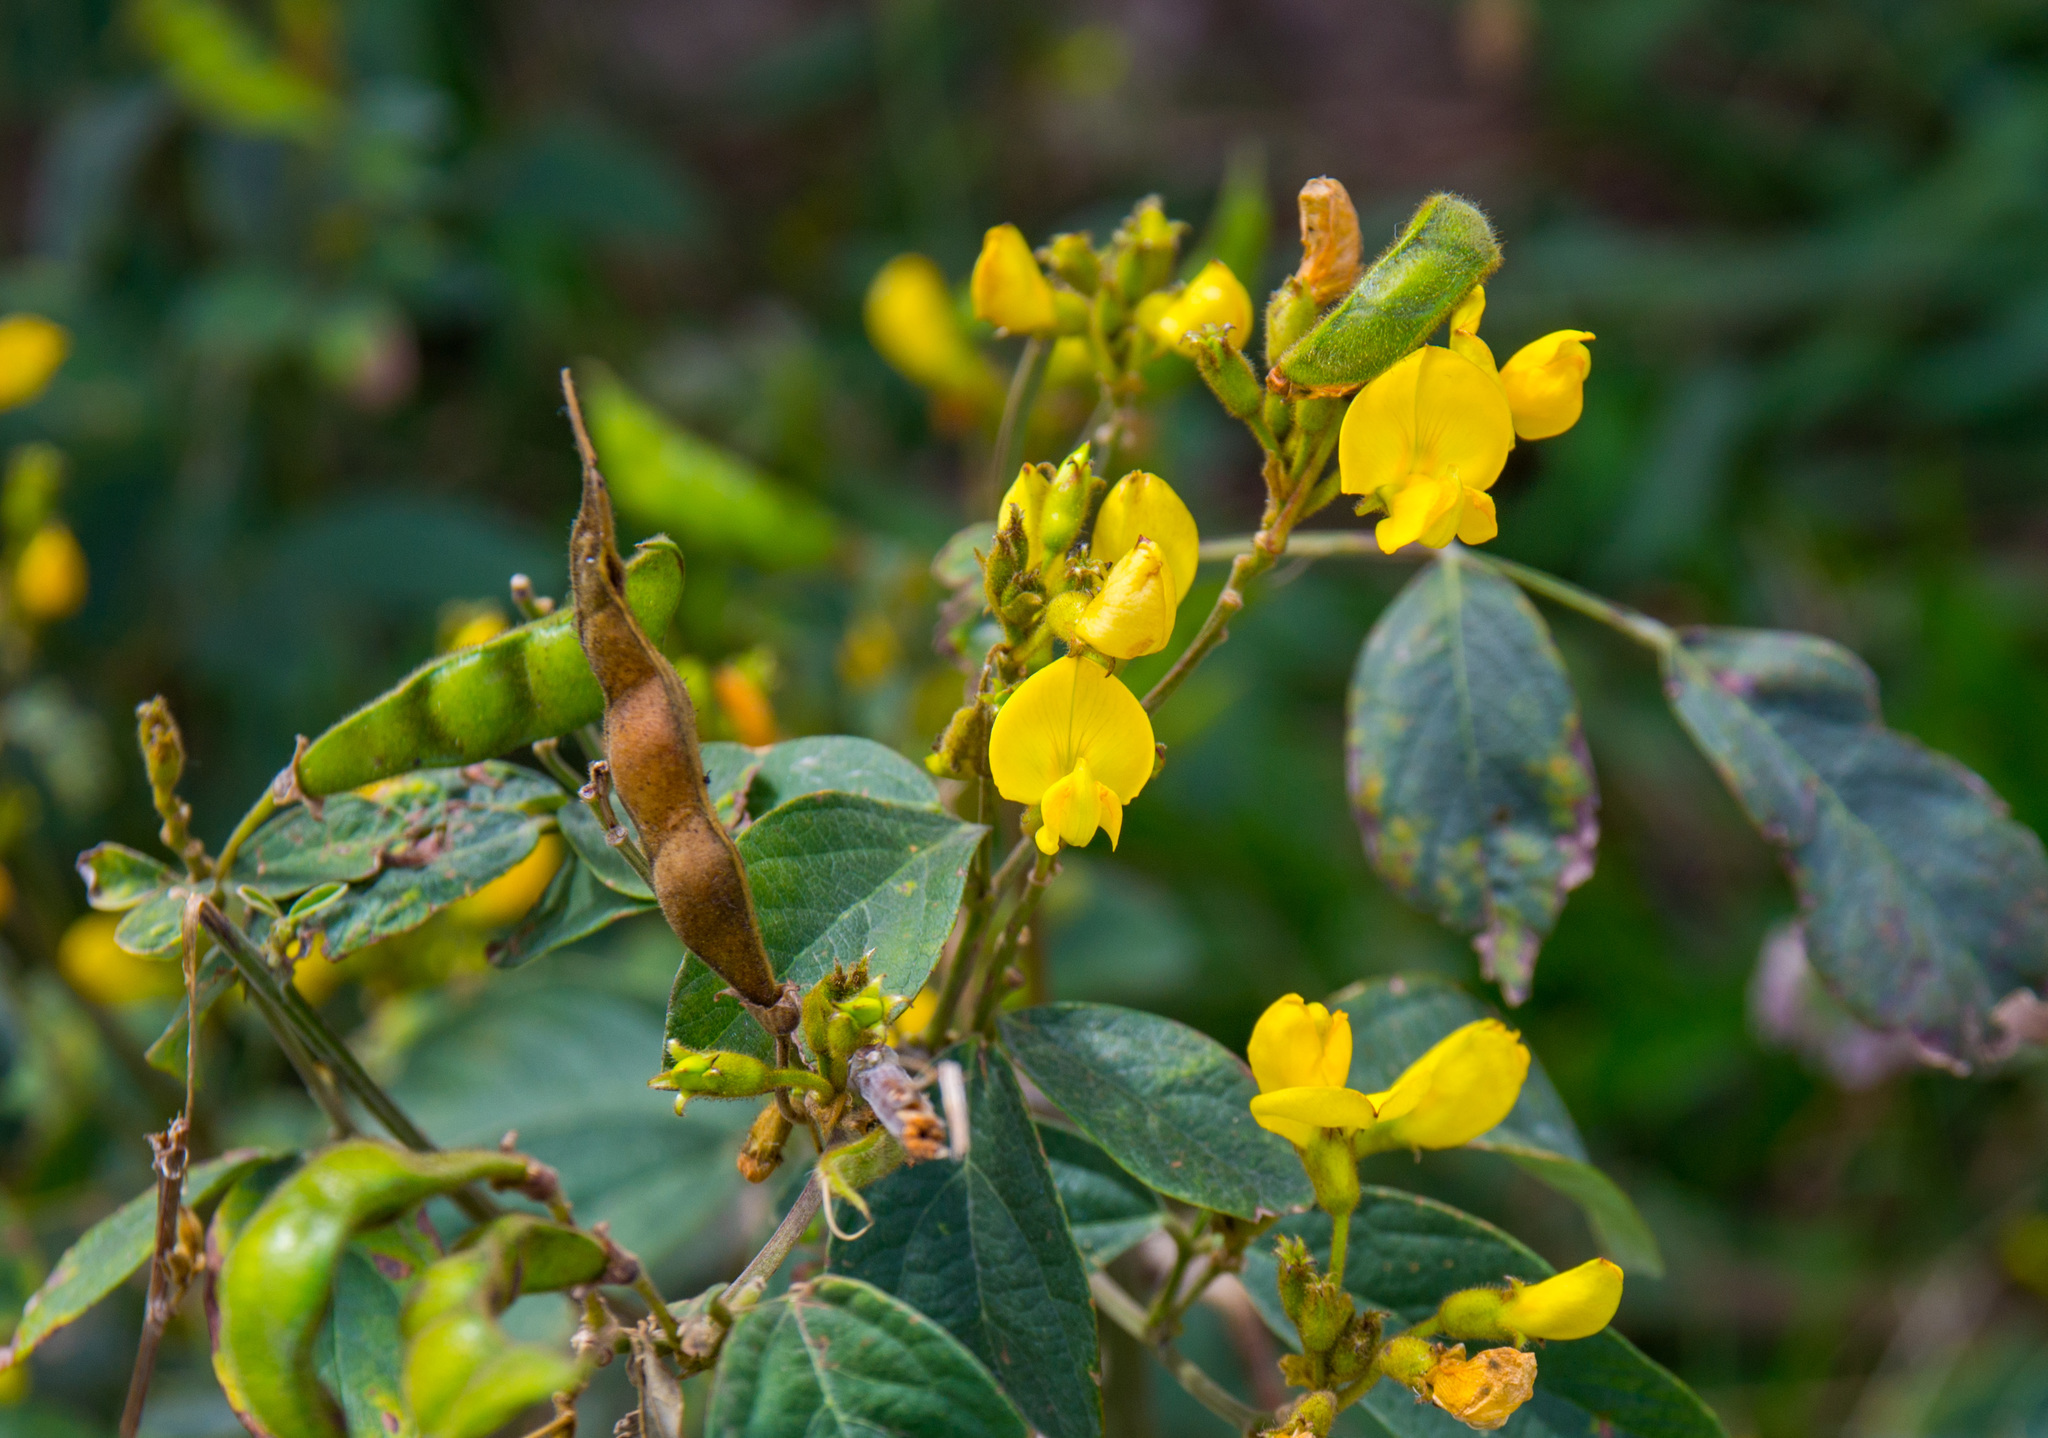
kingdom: Plantae
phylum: Tracheophyta
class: Magnoliopsida
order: Fabales
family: Fabaceae
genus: Cajanus
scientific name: Cajanus cajan
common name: Pigeonpea
